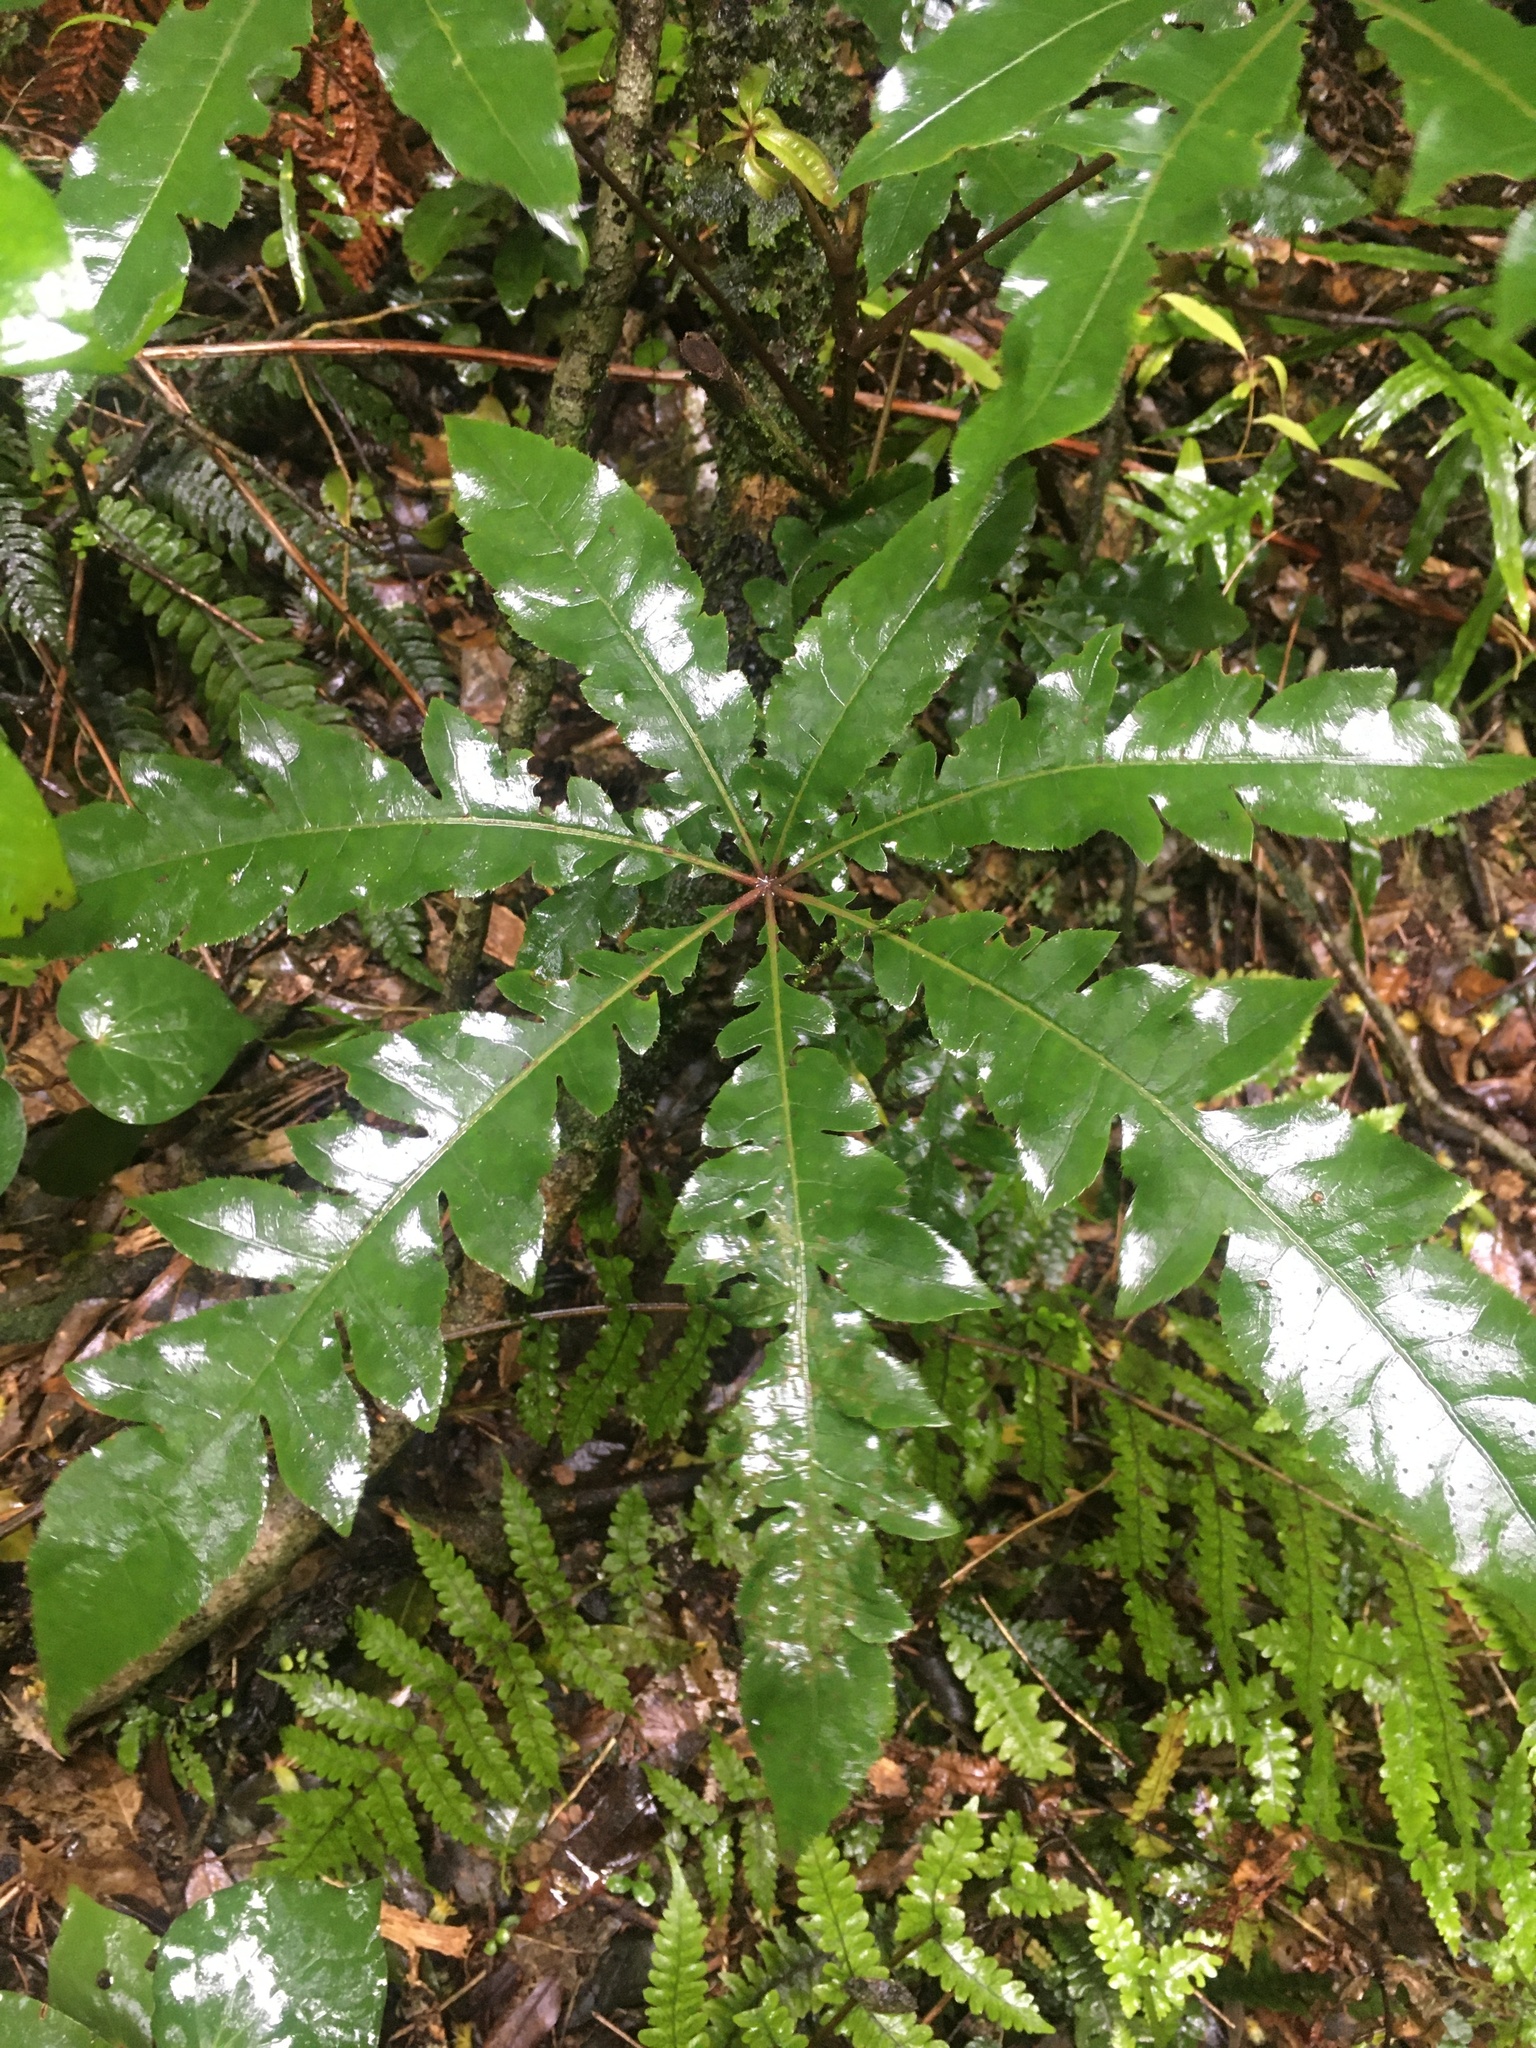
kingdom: Plantae
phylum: Tracheophyta
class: Magnoliopsida
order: Apiales
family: Araliaceae
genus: Schefflera
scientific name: Schefflera digitata
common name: Pate
